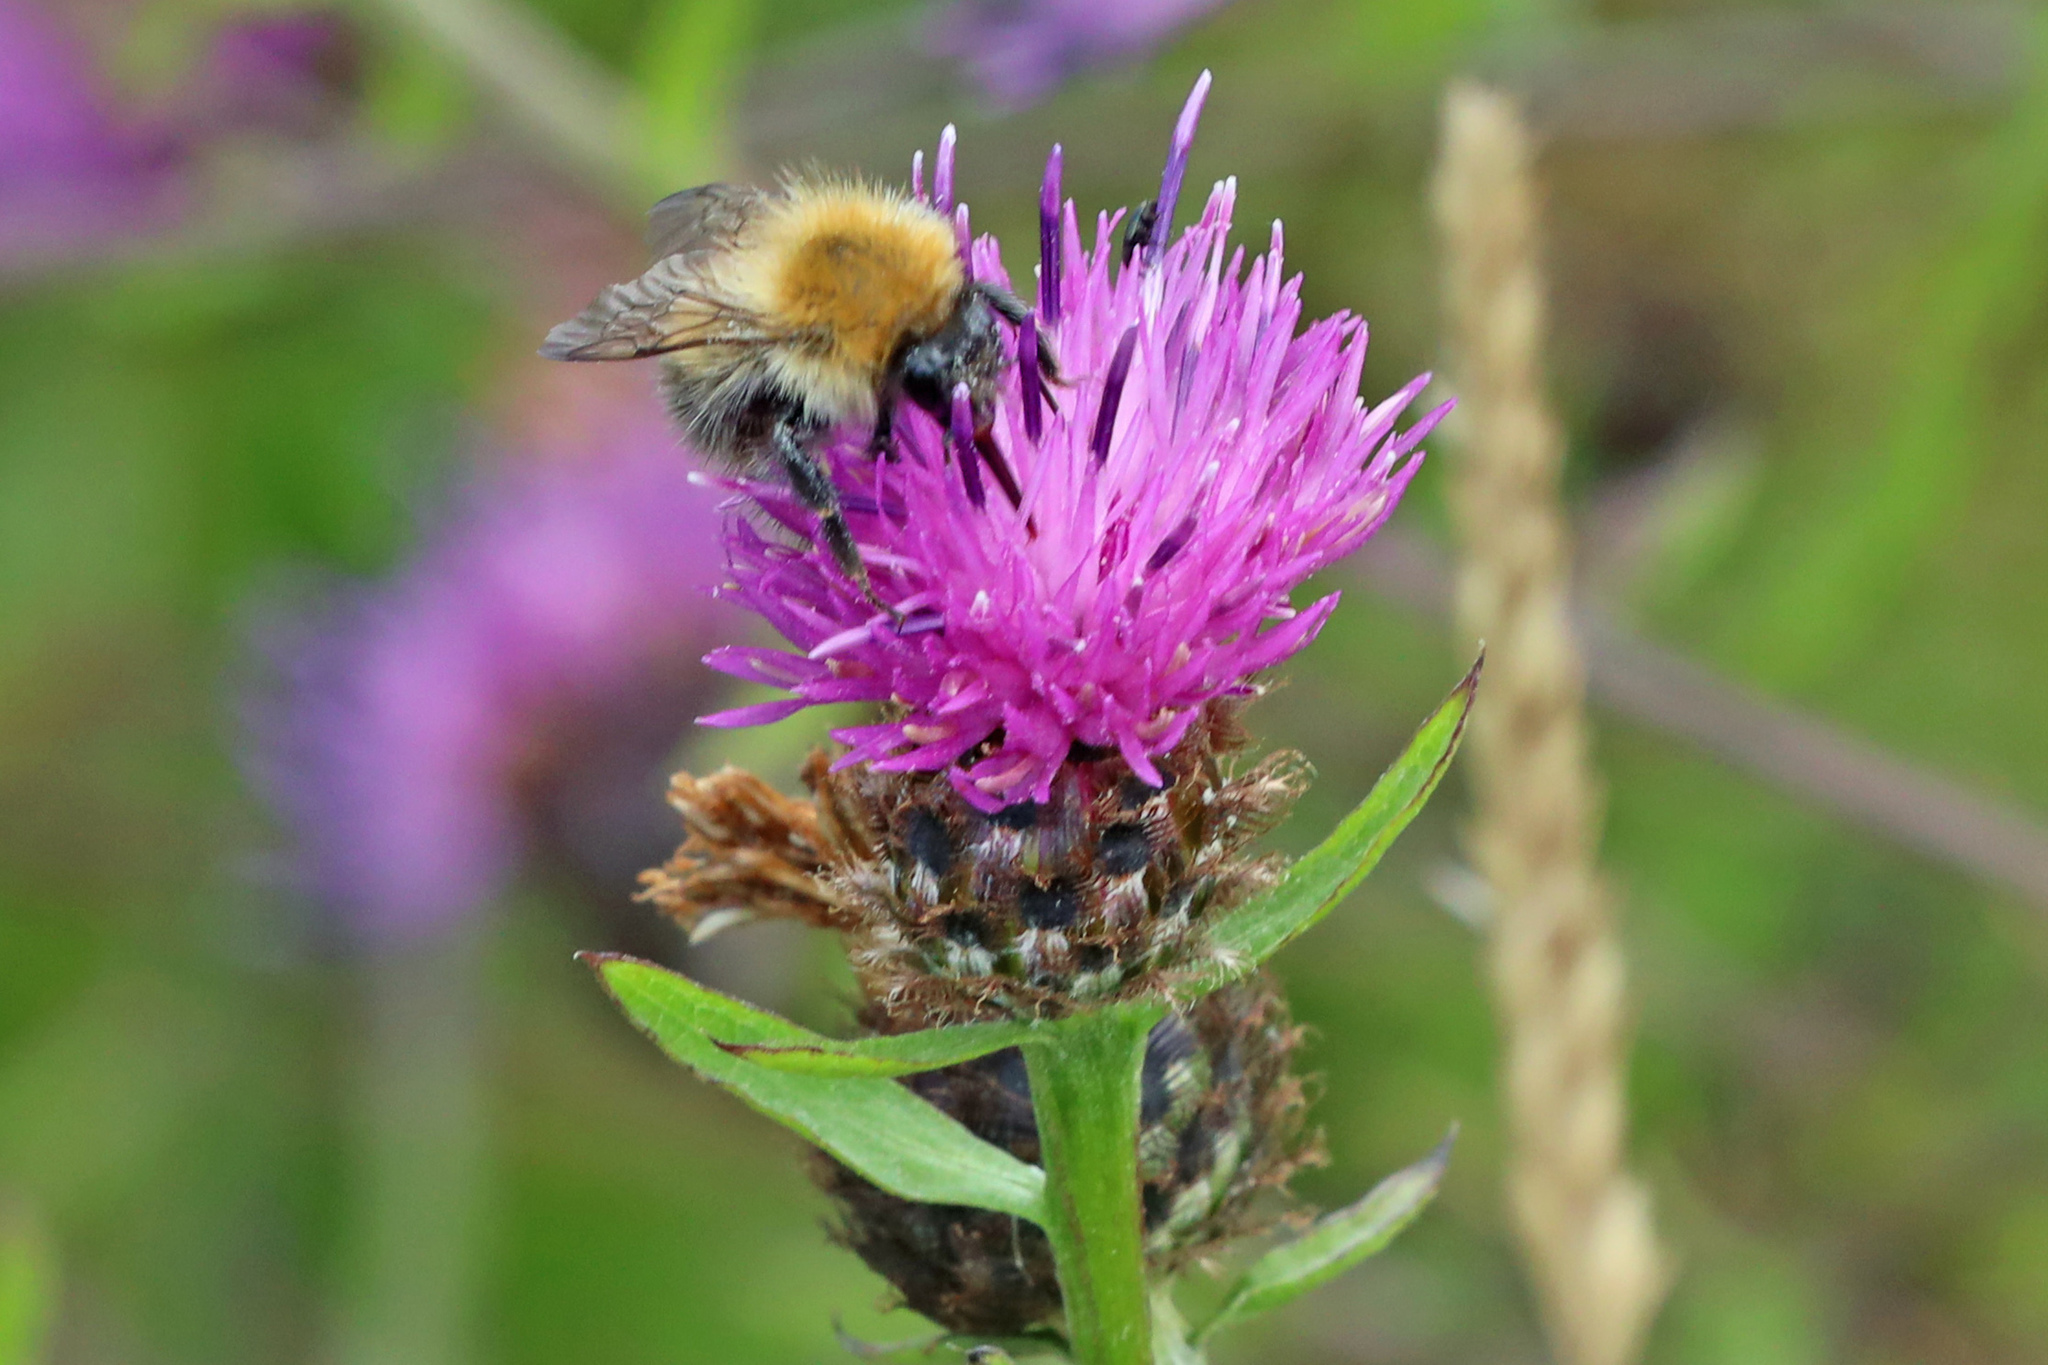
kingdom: Animalia
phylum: Arthropoda
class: Insecta
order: Hymenoptera
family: Apidae
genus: Bombus
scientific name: Bombus pascuorum
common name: Common carder bee
